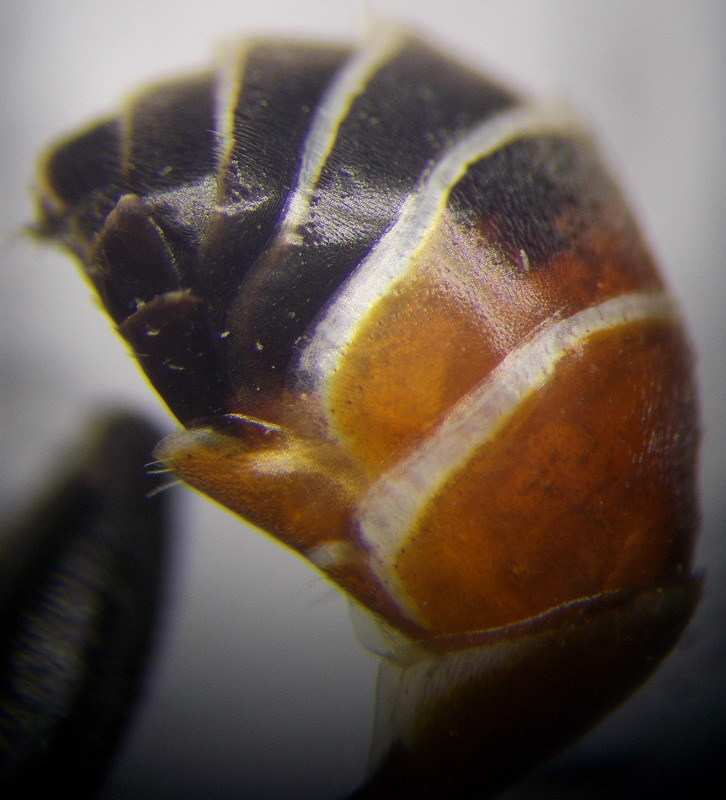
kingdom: Animalia
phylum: Arthropoda
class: Insecta
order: Hymenoptera
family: Sphecidae
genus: Prionyx
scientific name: Prionyx kirbii
